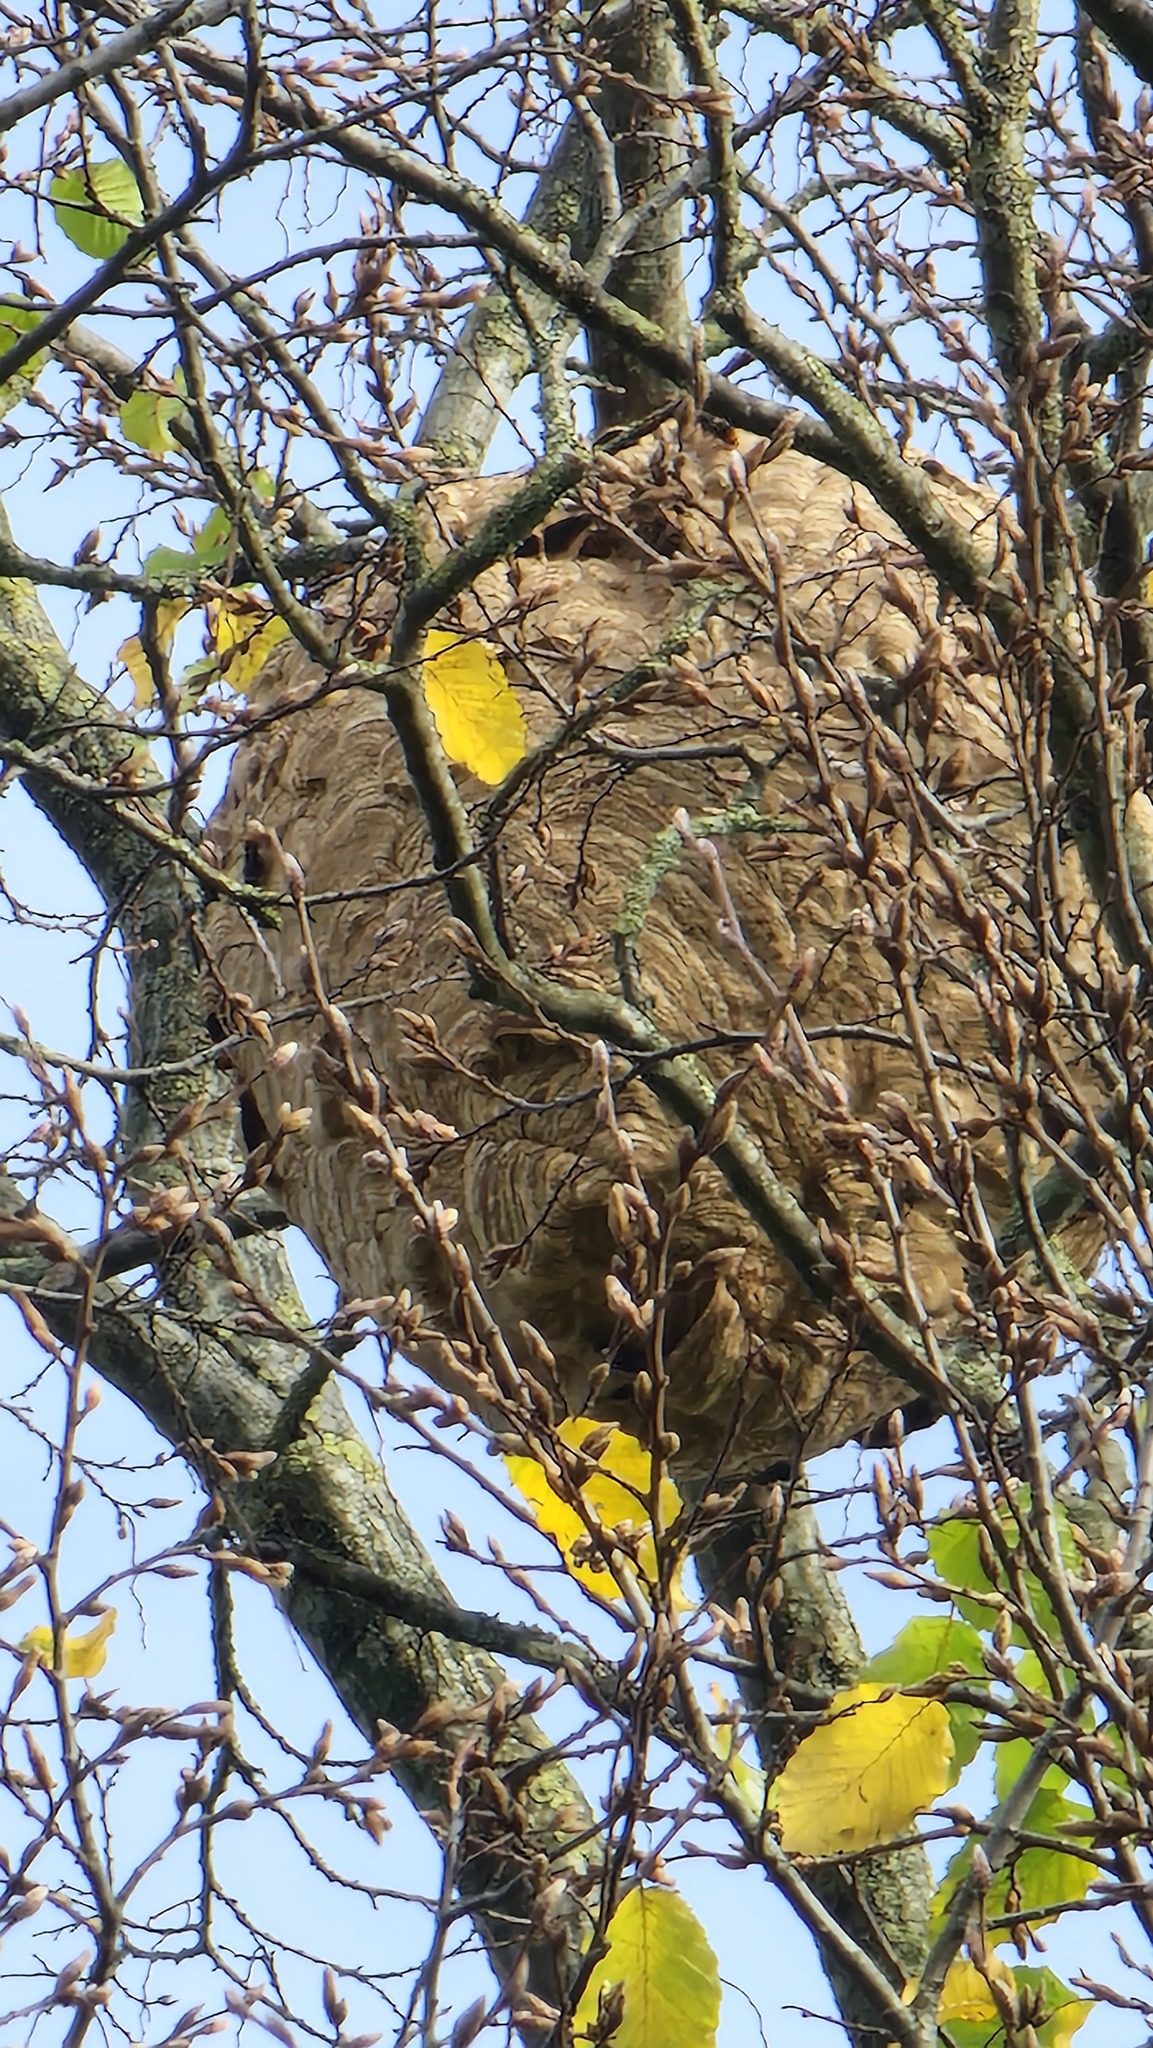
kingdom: Animalia
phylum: Arthropoda
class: Insecta
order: Hymenoptera
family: Vespidae
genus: Vespa
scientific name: Vespa velutina
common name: Asian hornet
